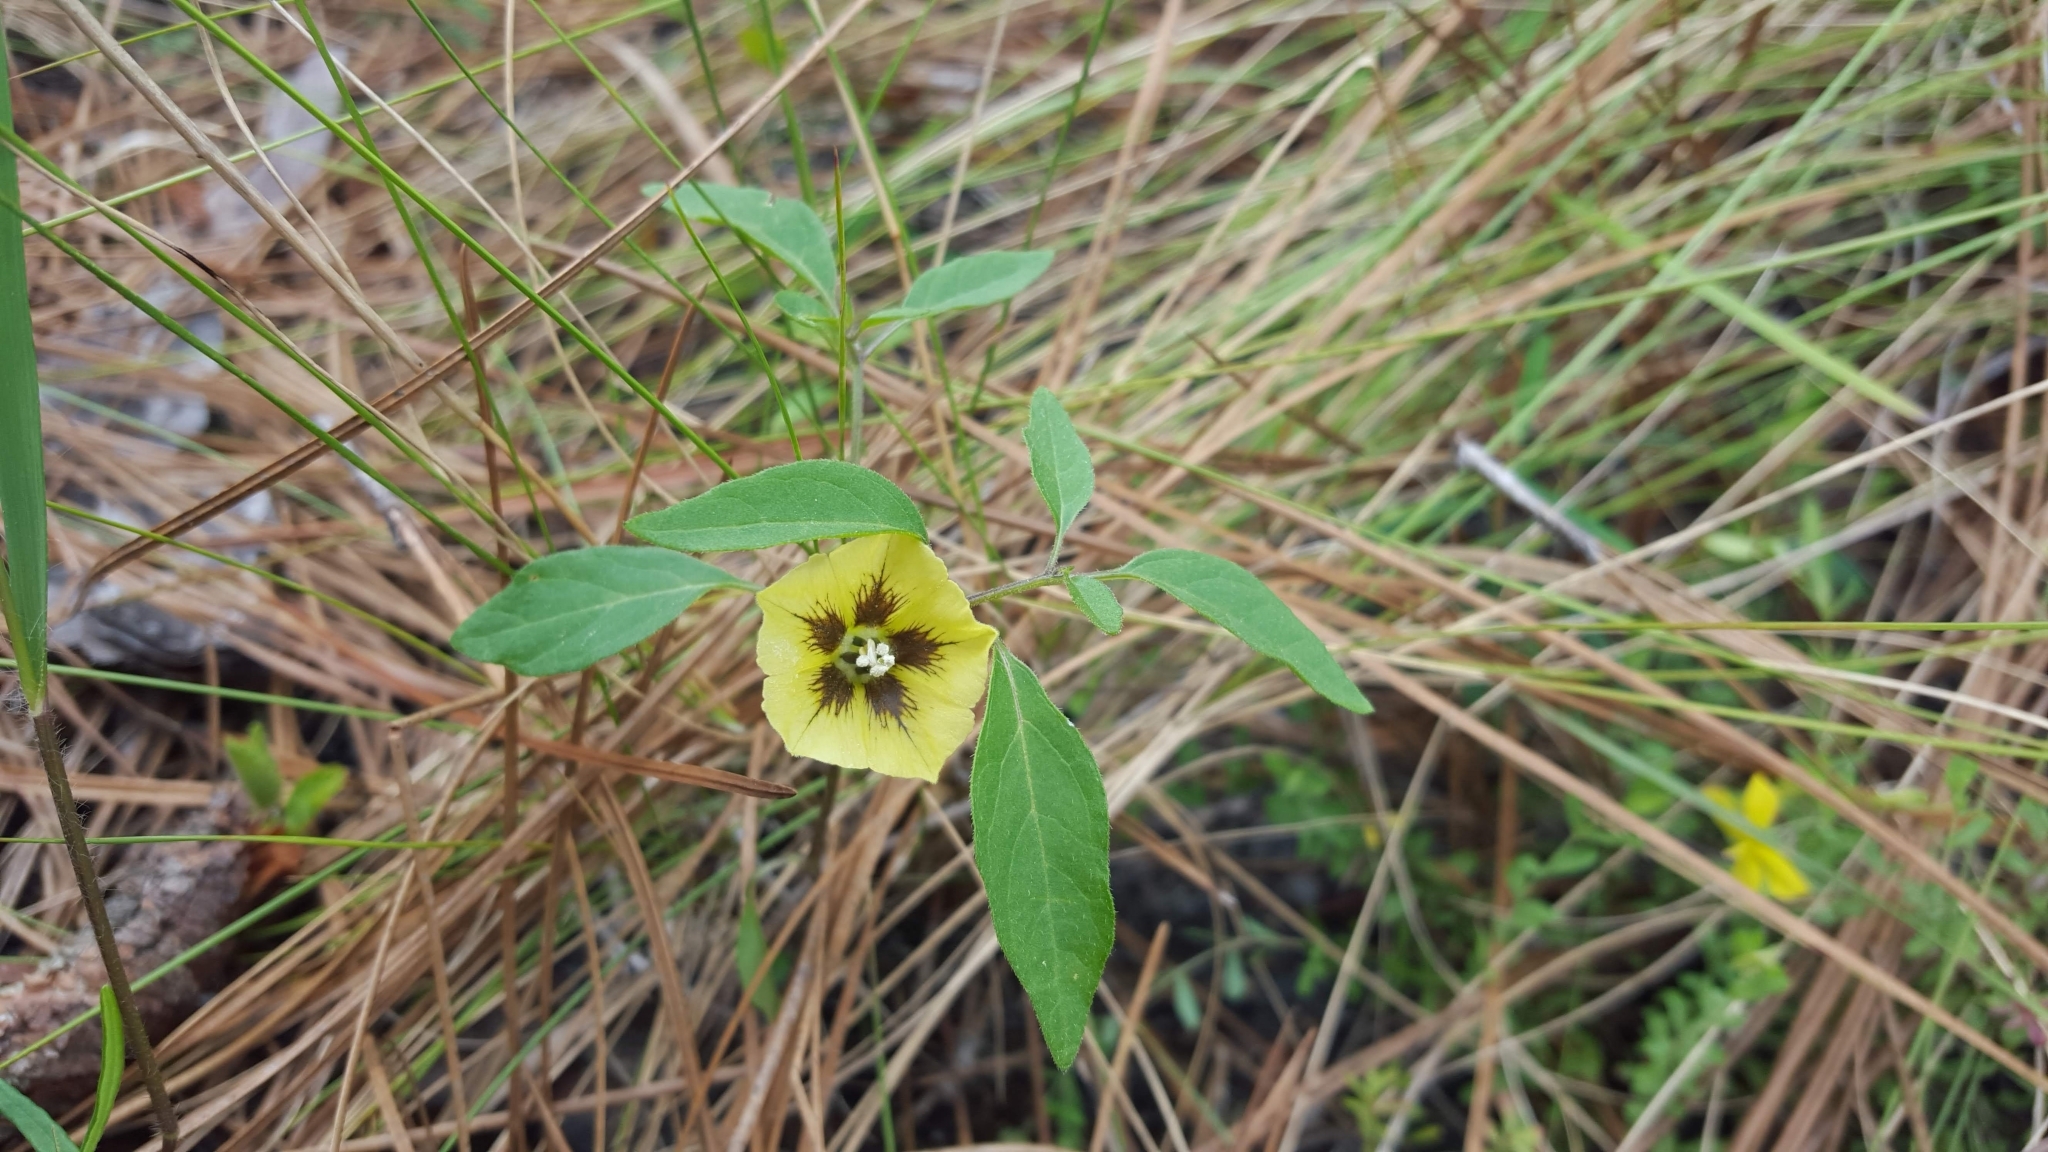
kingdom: Plantae
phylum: Tracheophyta
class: Magnoliopsida
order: Solanales
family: Solanaceae
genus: Physalis
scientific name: Physalis virginiana
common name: Virginia ground-cherry
